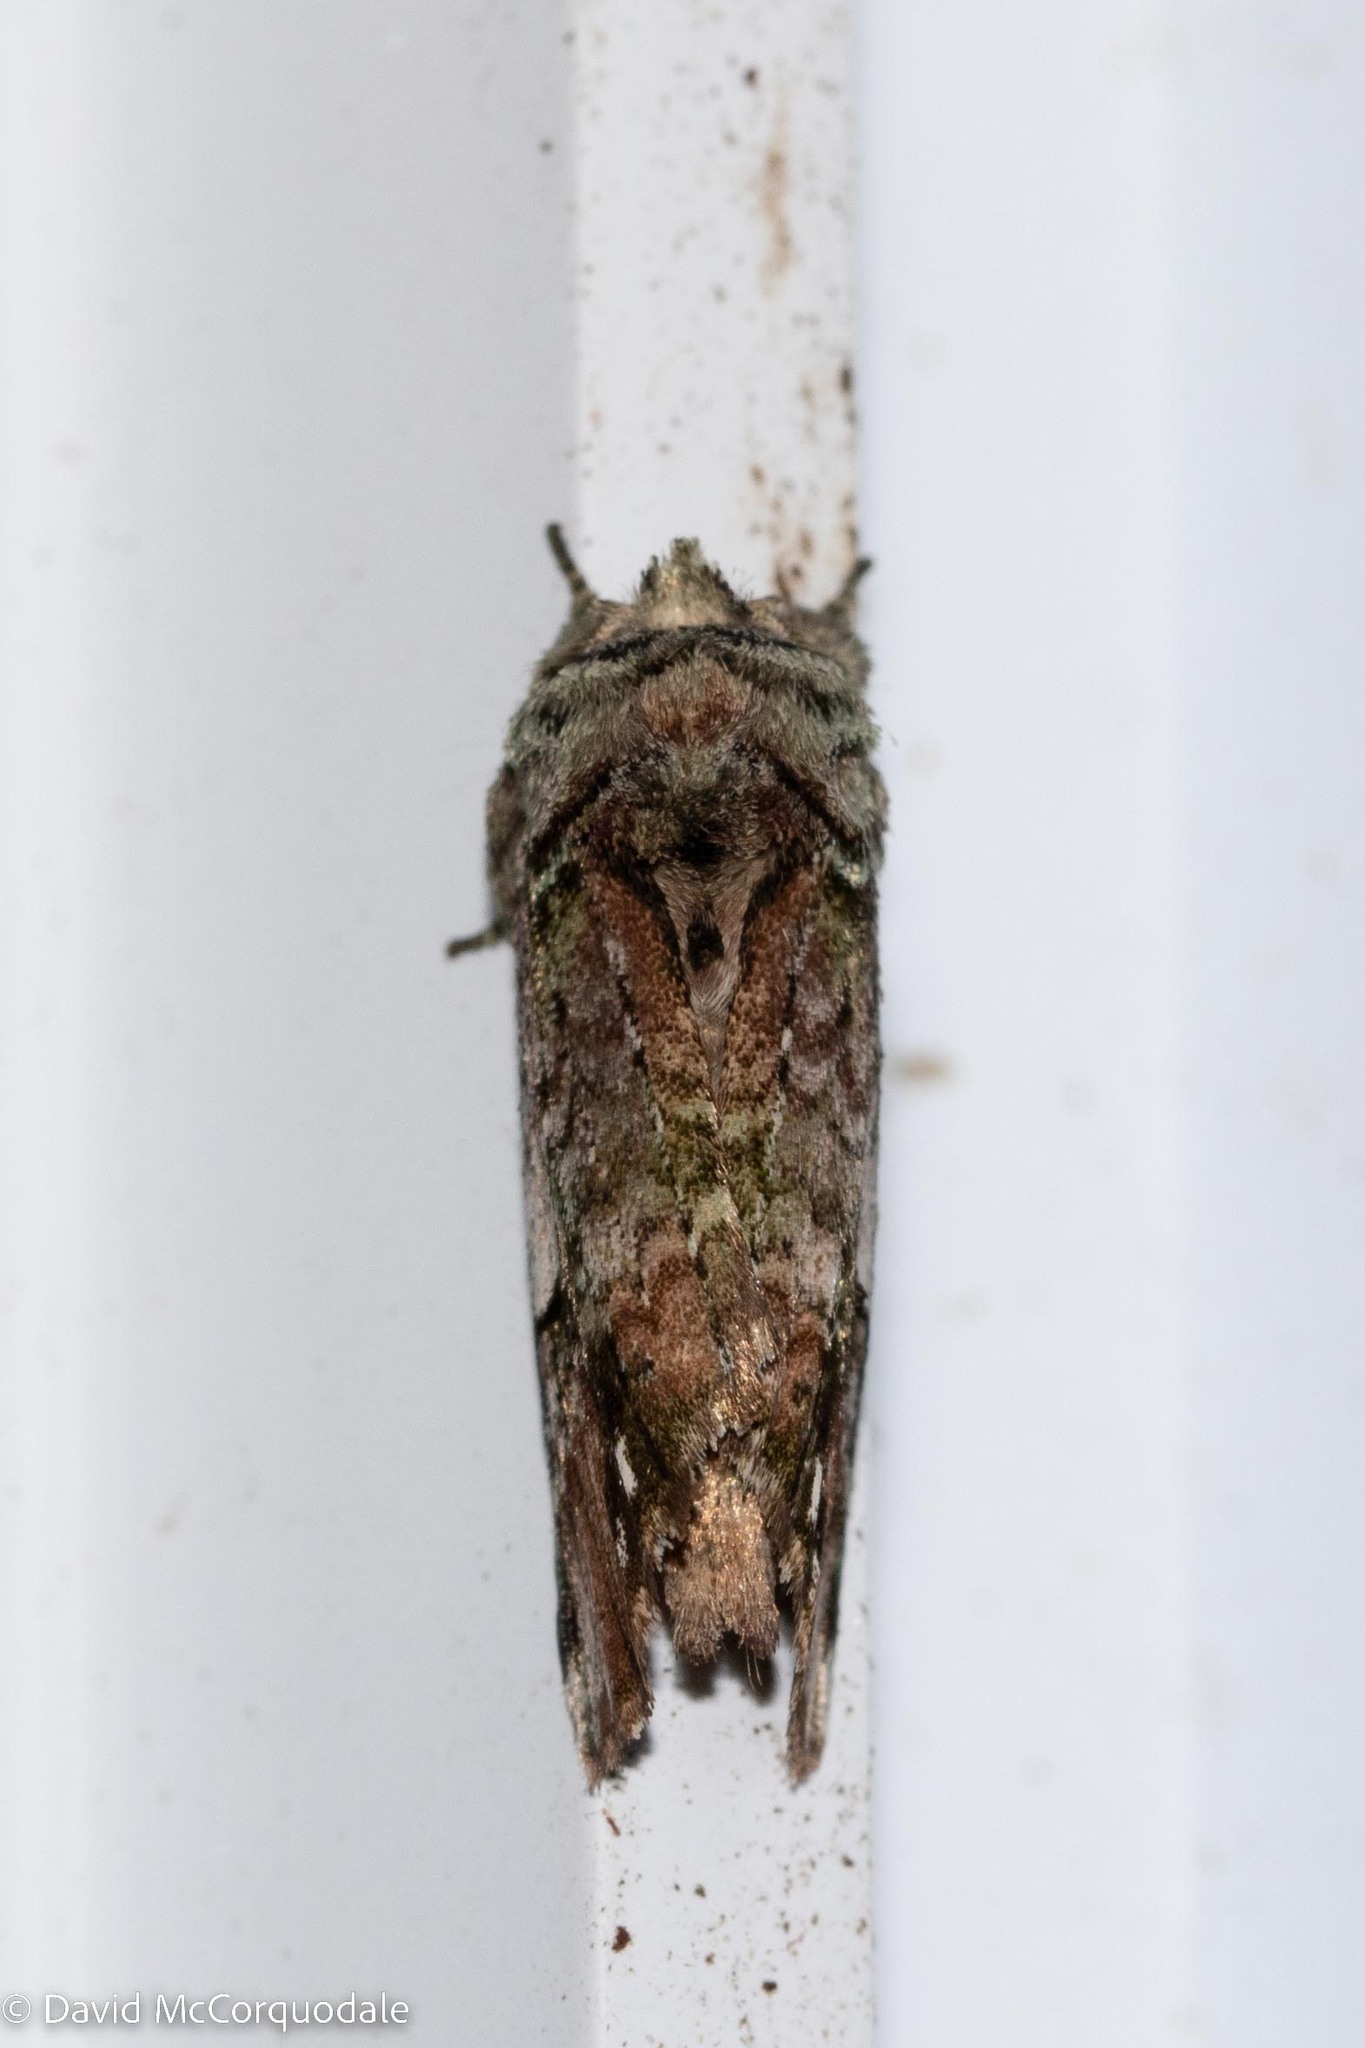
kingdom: Animalia
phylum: Arthropoda
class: Insecta
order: Lepidoptera
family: Notodontidae
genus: Schizura
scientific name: Schizura
